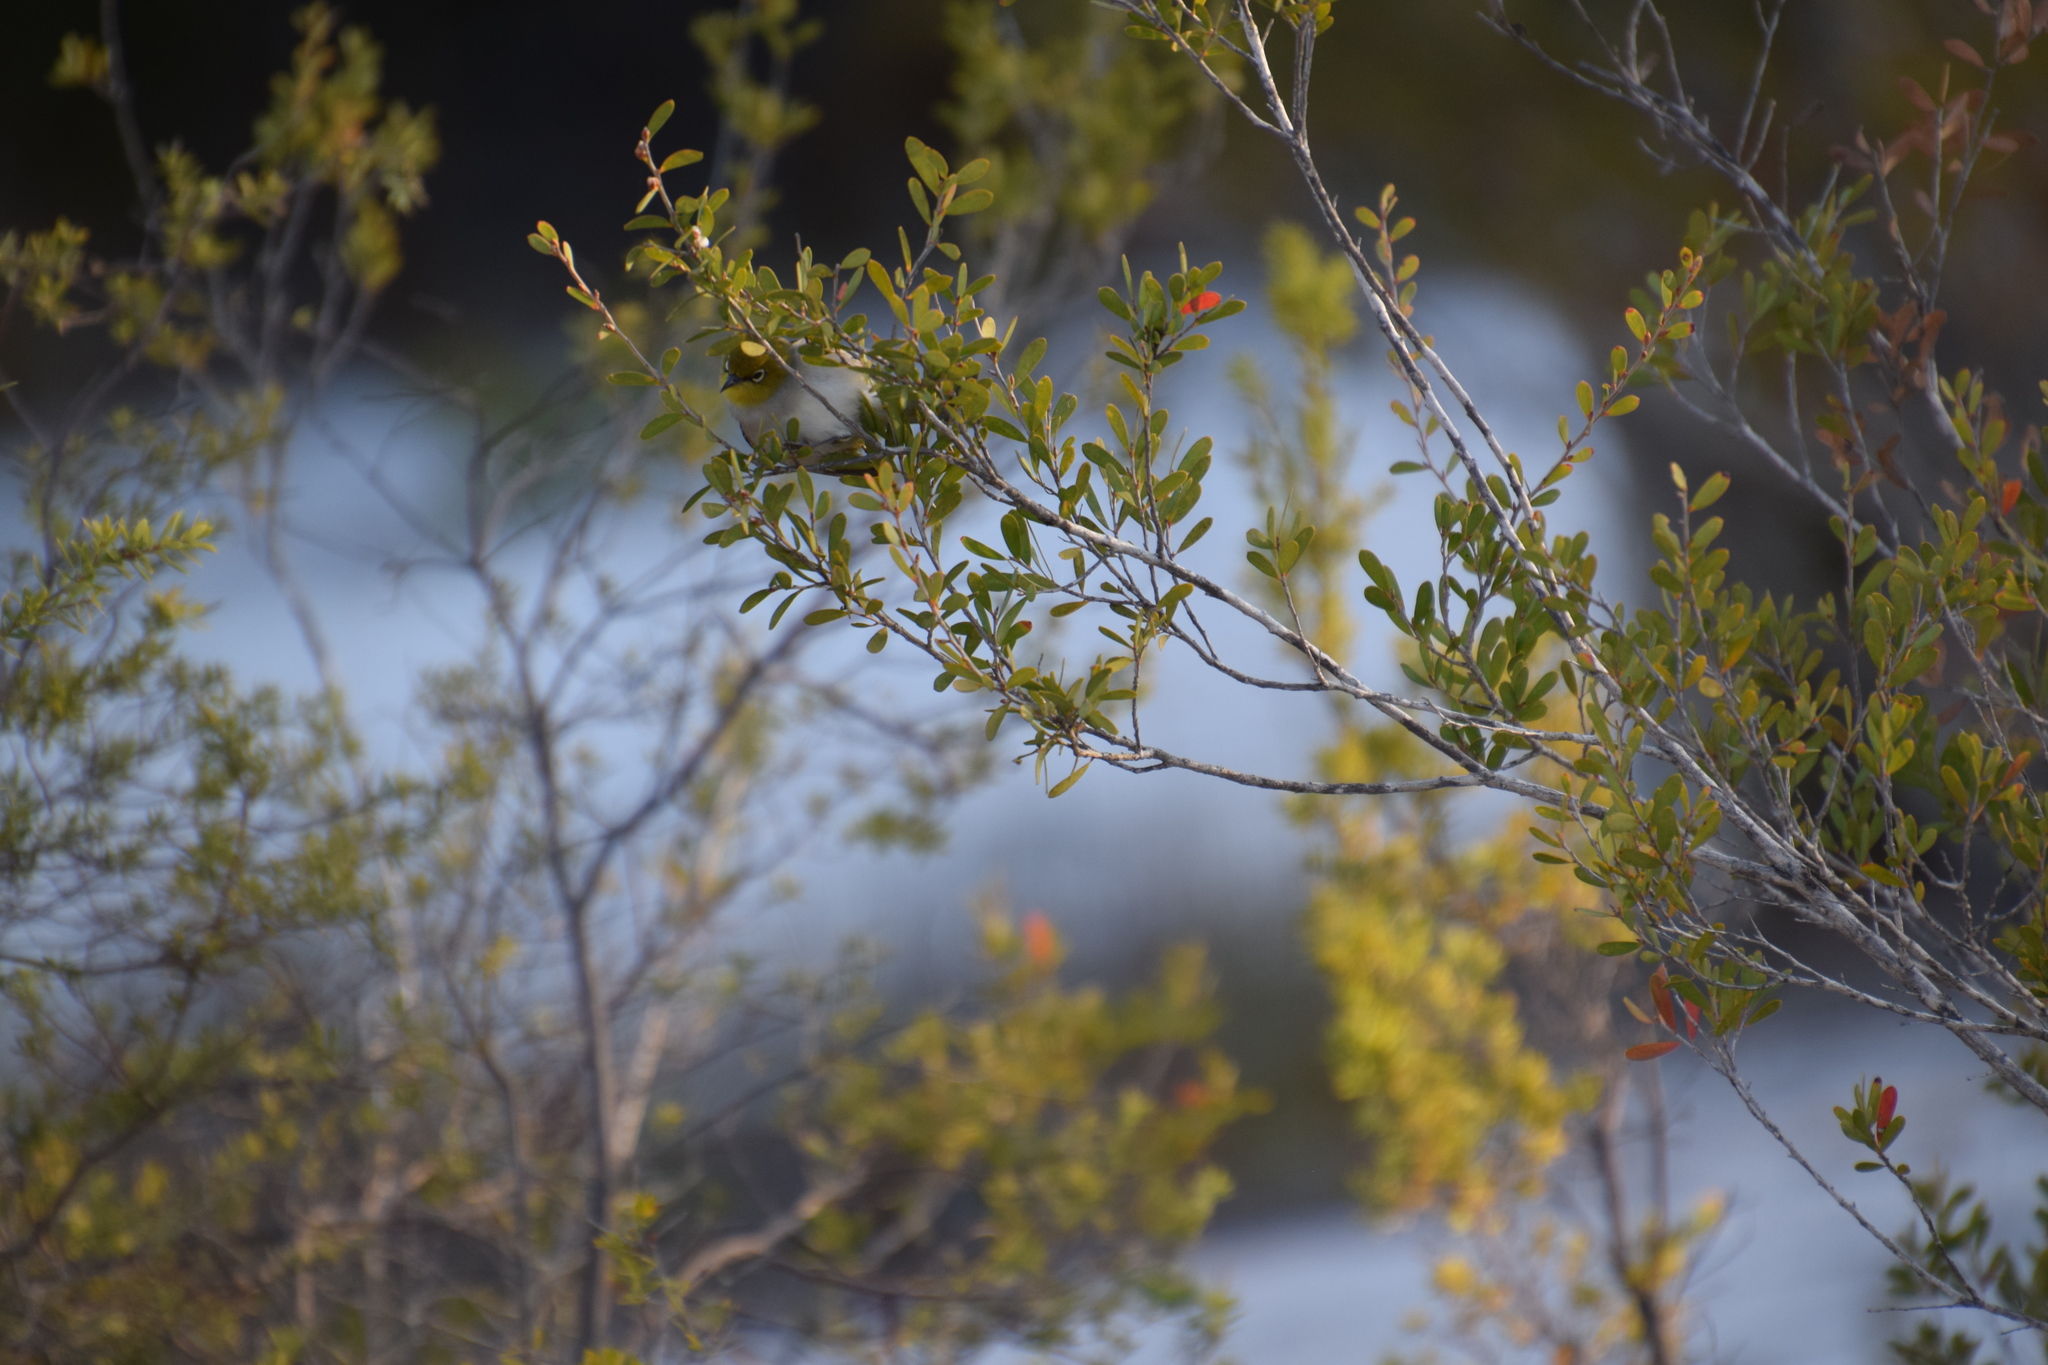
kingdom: Animalia
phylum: Chordata
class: Aves
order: Passeriformes
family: Zosteropidae
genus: Zosterops
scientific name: Zosterops lateralis
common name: Silvereye
